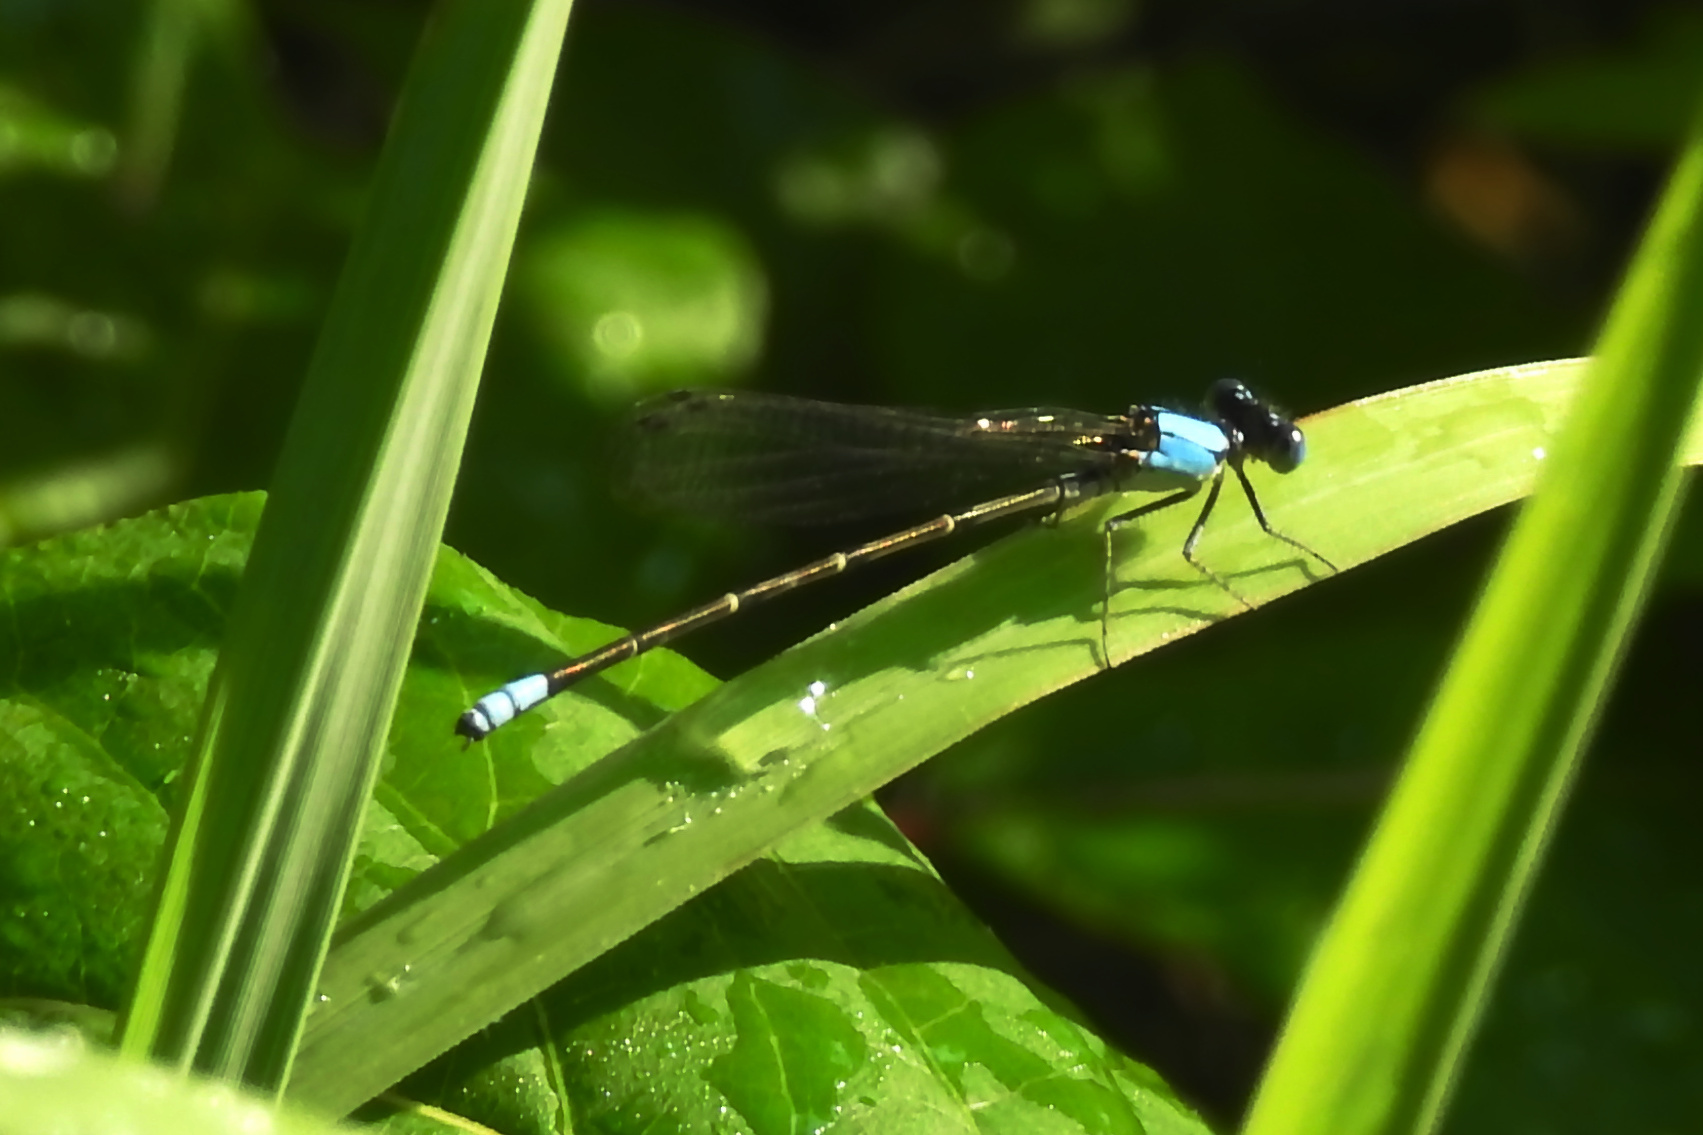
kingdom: Animalia
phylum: Arthropoda
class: Insecta
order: Odonata
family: Coenagrionidae
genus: Argia
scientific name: Argia apicalis
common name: Blue-fronted dancer
